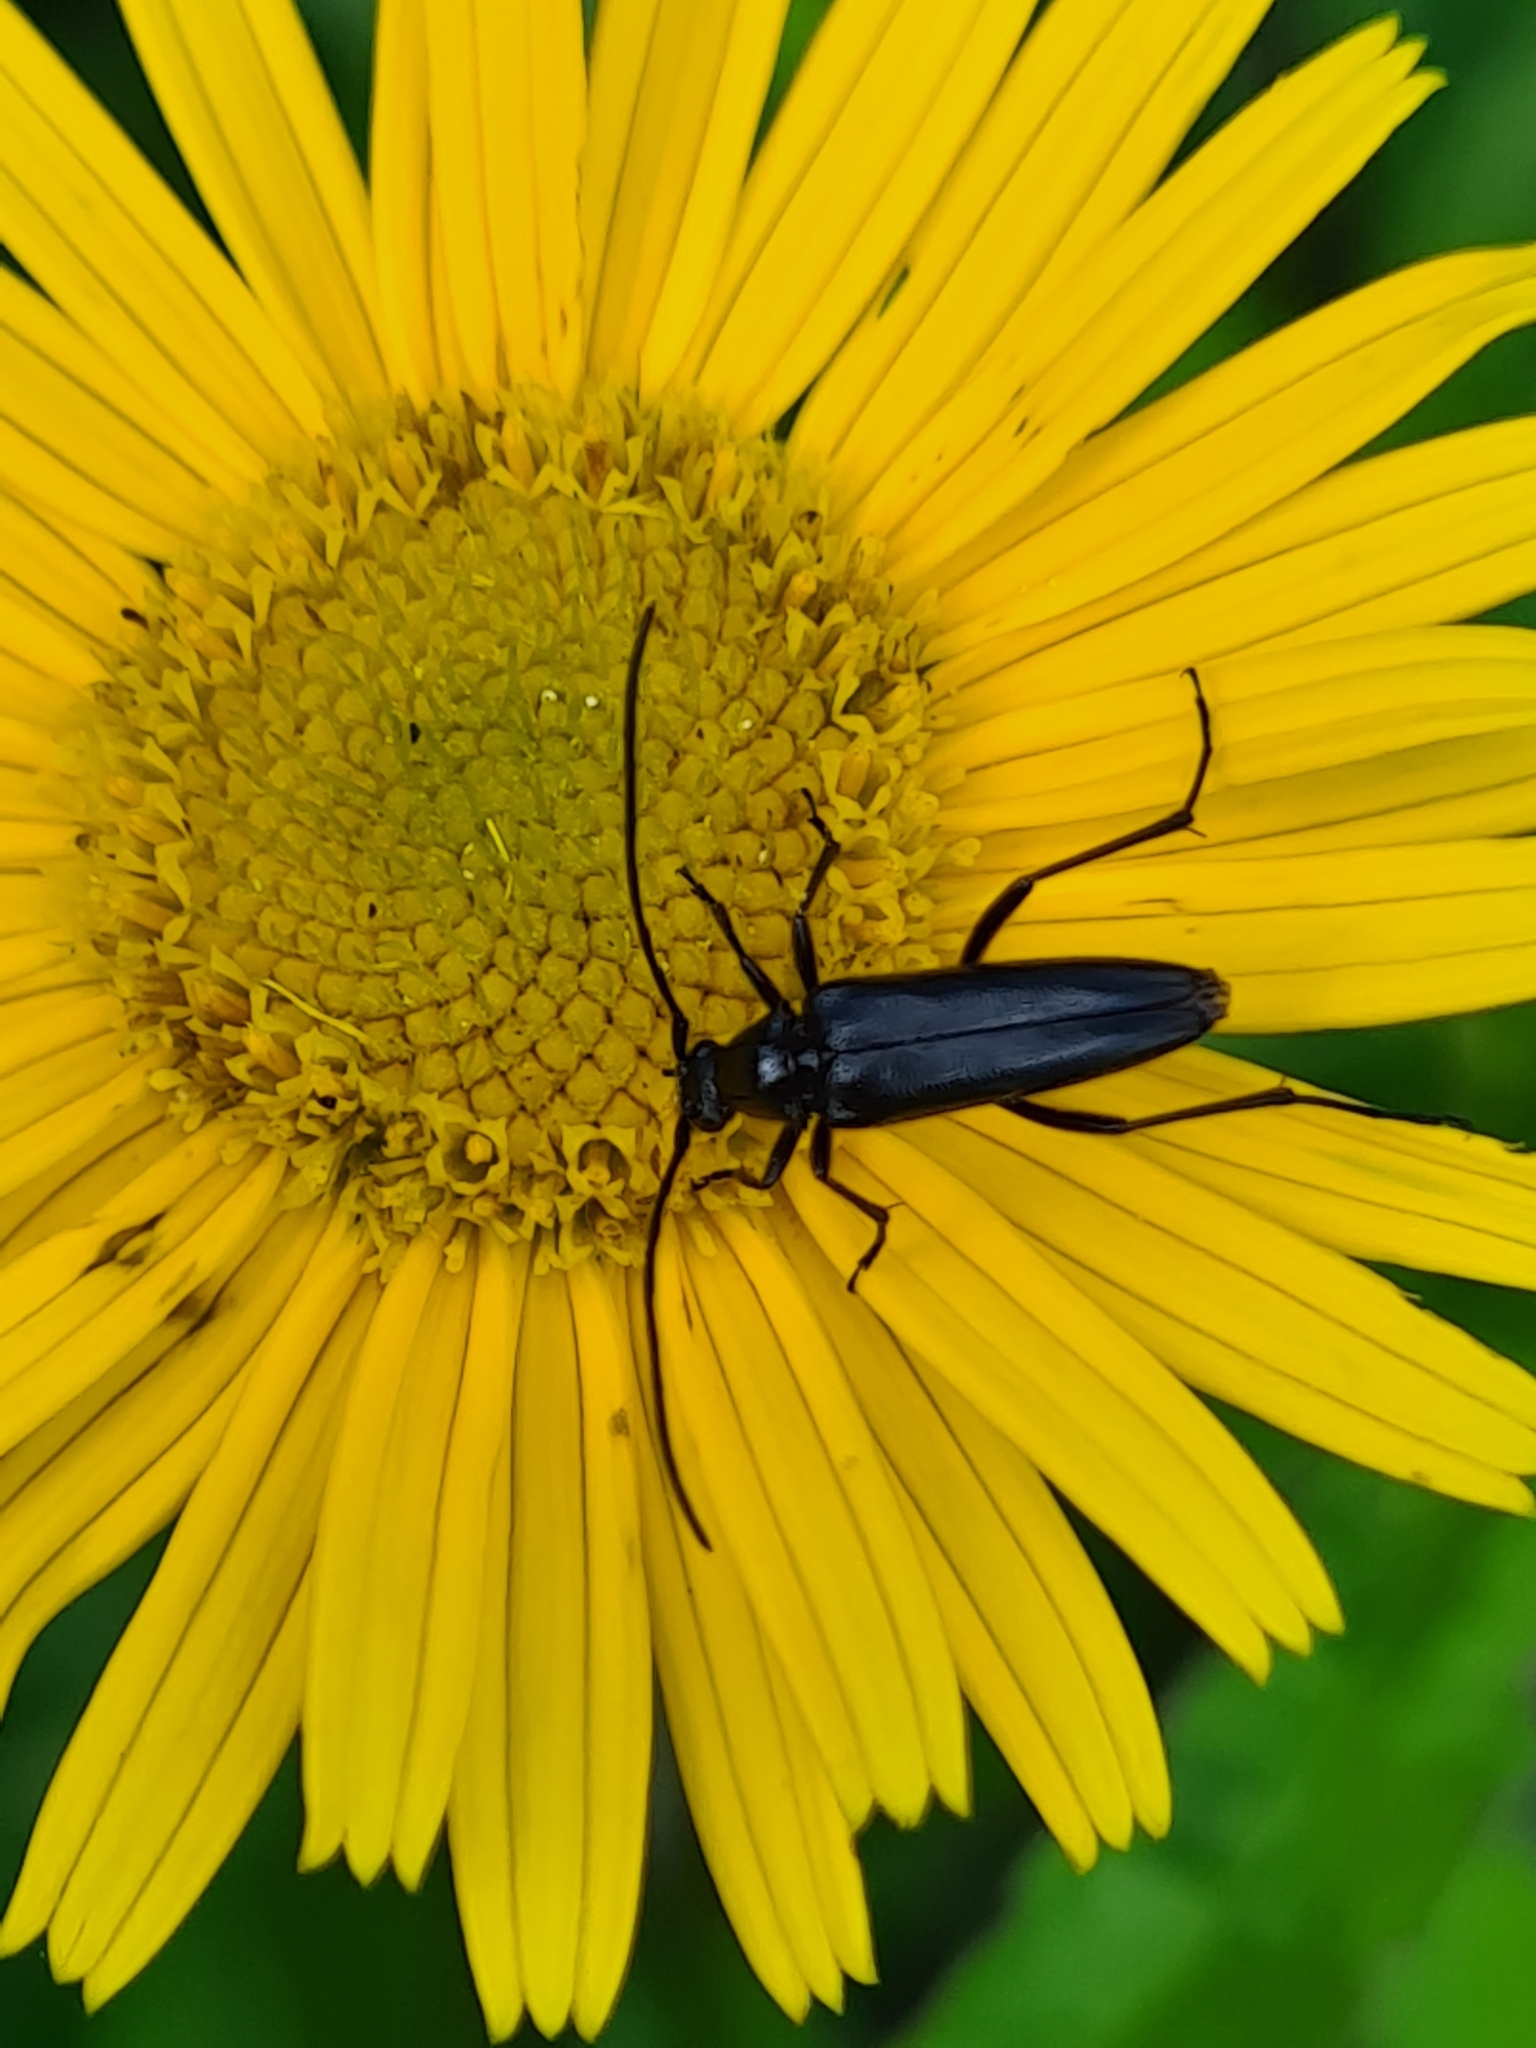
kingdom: Animalia
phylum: Arthropoda
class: Insecta
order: Coleoptera
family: Cerambycidae
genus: Stenurella
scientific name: Stenurella nigra
